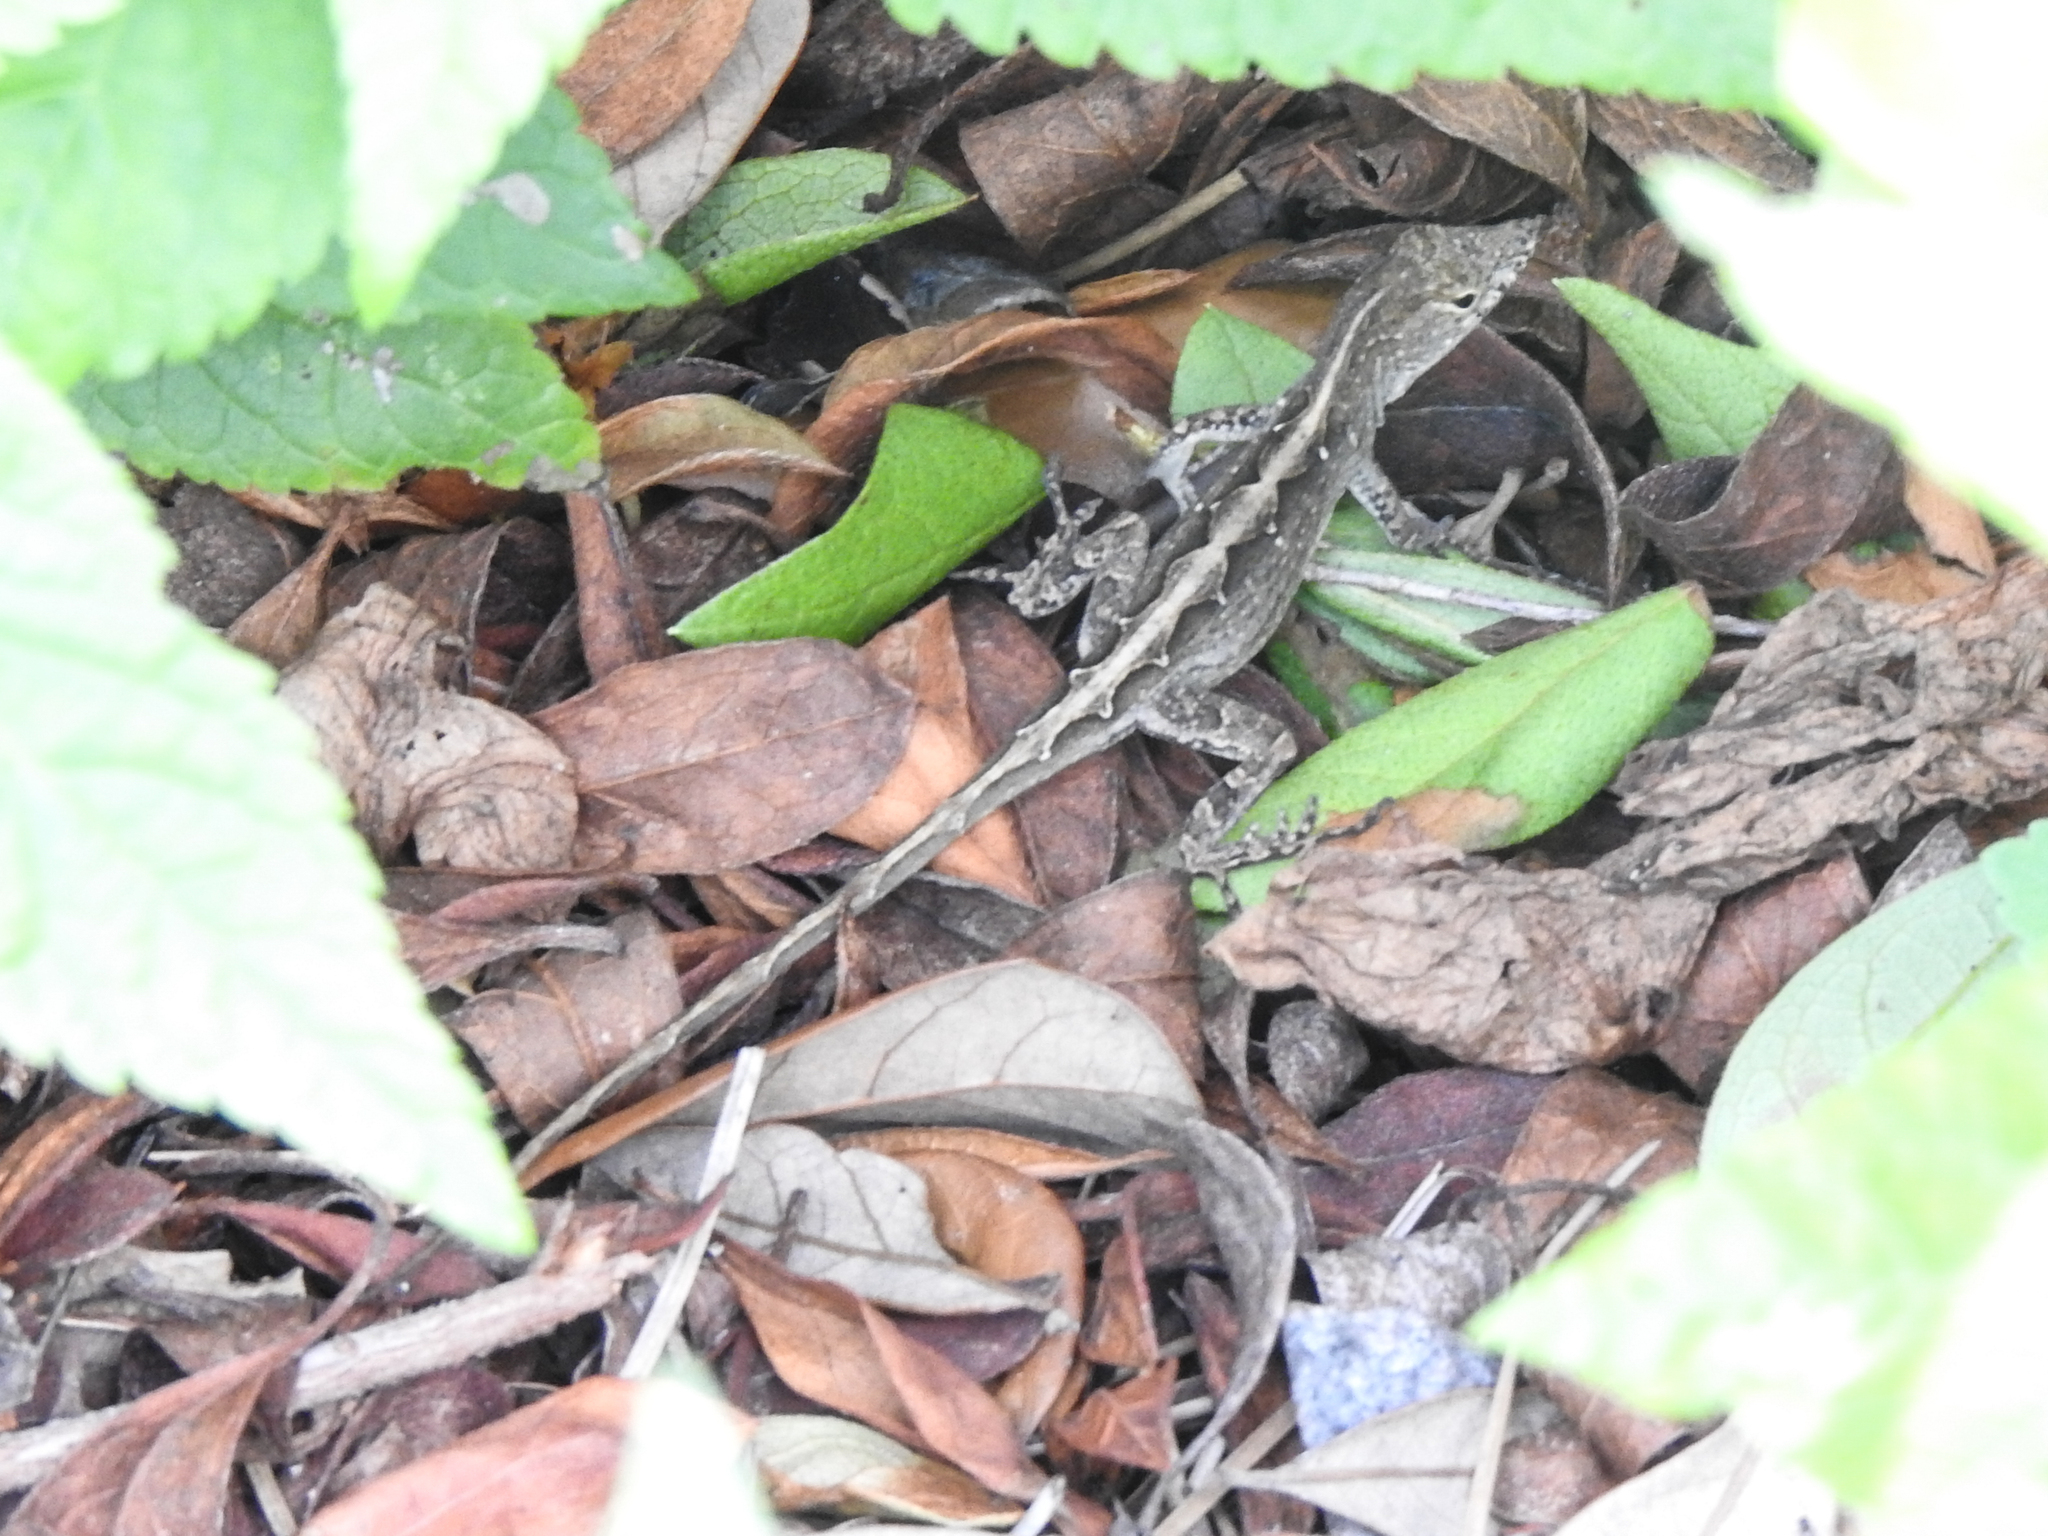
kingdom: Animalia
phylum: Chordata
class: Squamata
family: Dactyloidae
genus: Anolis
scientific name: Anolis sagrei
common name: Brown anole
